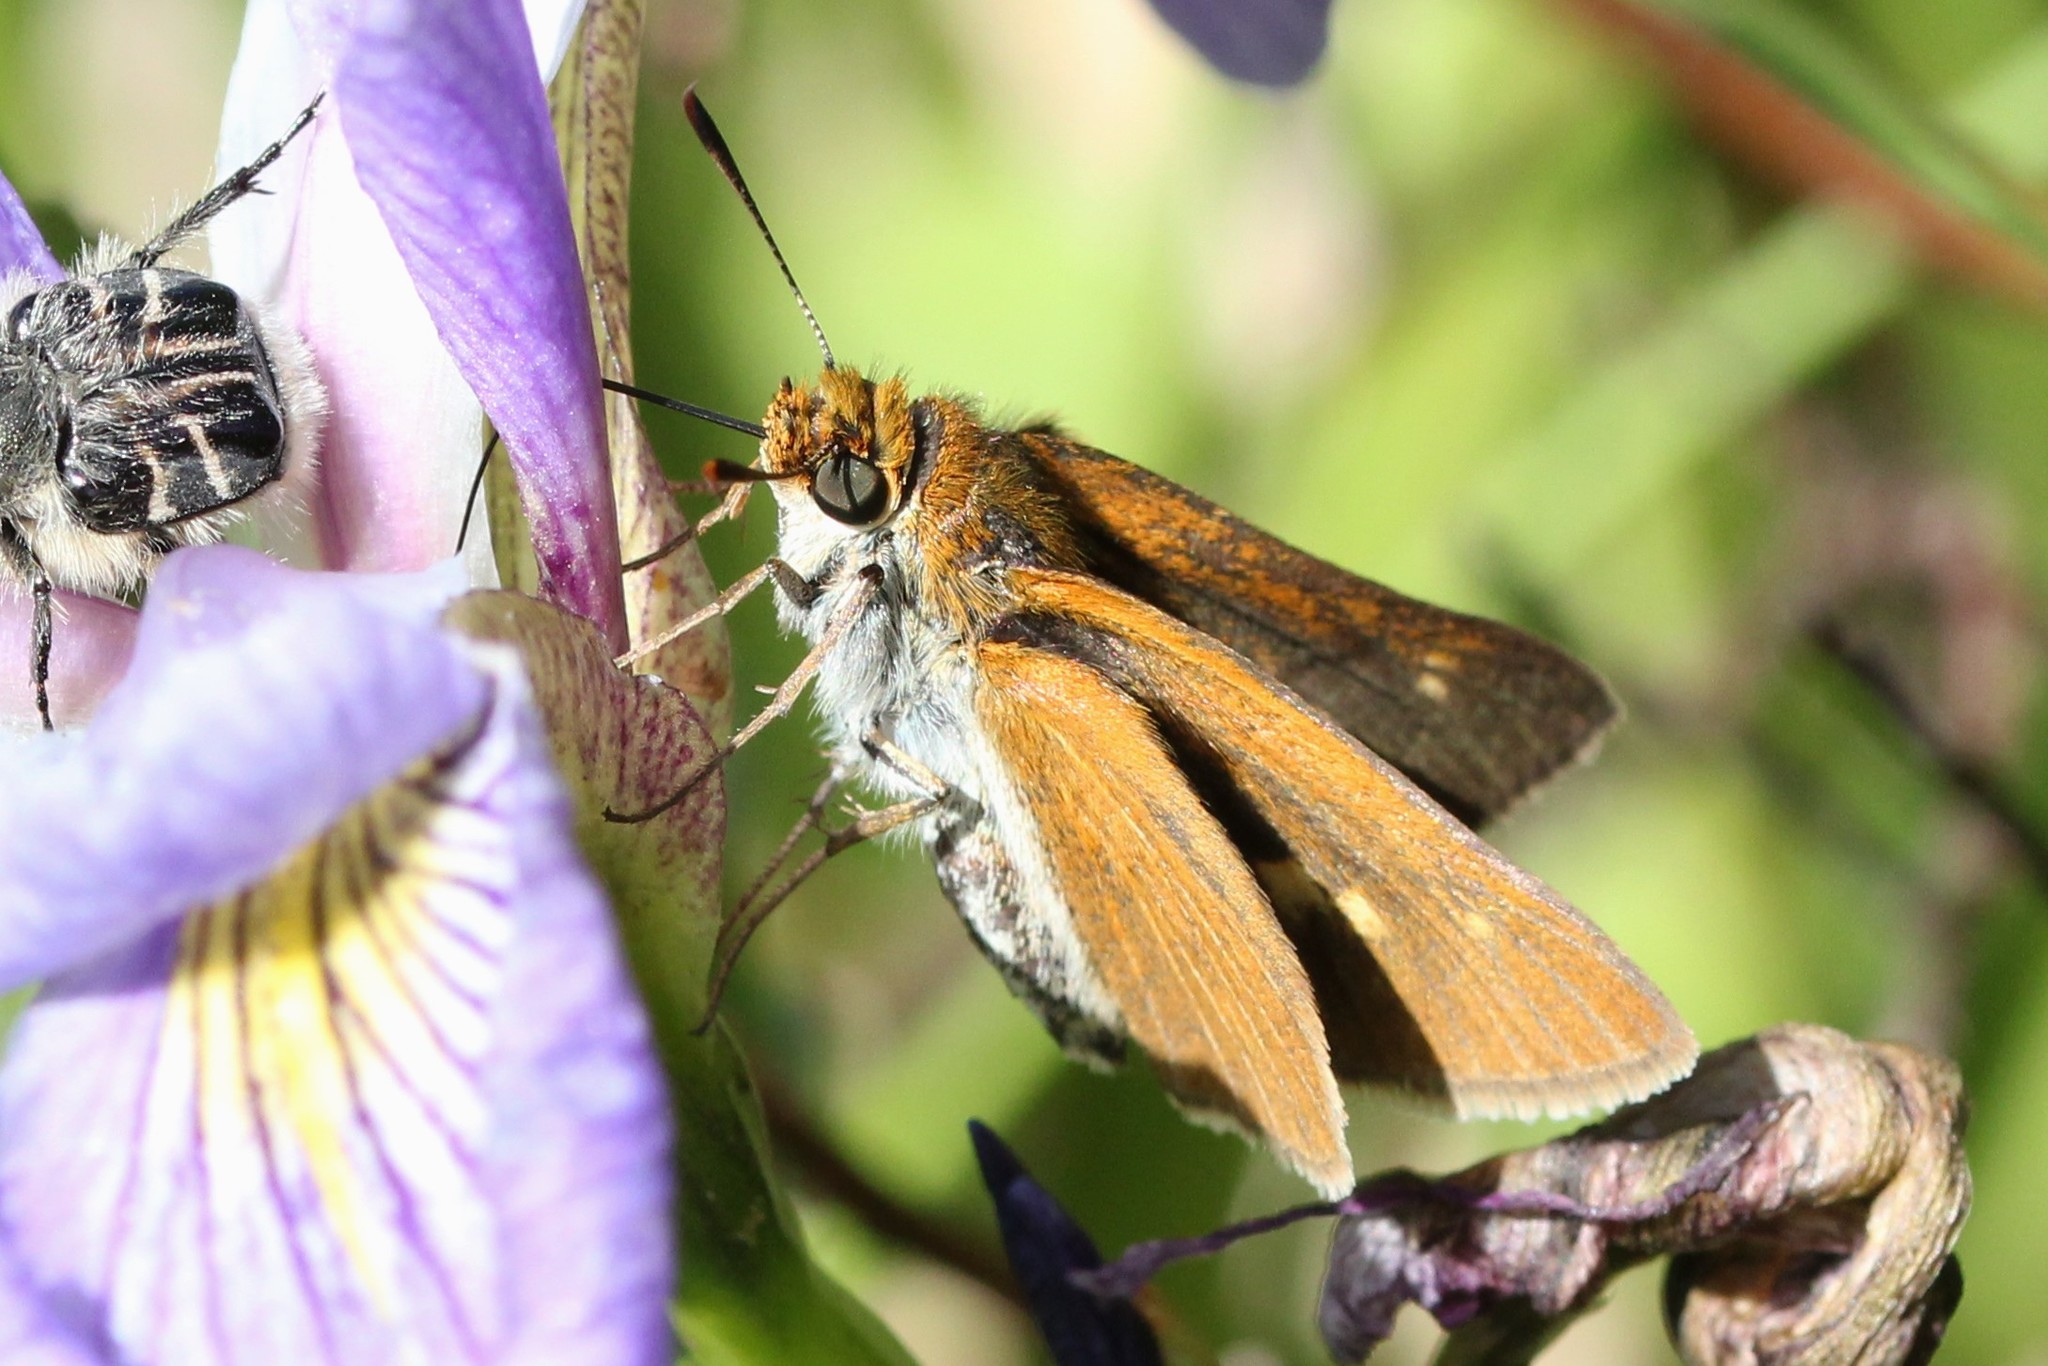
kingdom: Animalia
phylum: Arthropoda
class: Insecta
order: Lepidoptera
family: Hesperiidae
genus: Euphyes
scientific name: Euphyes bimacula
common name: Two-spotted skipper
